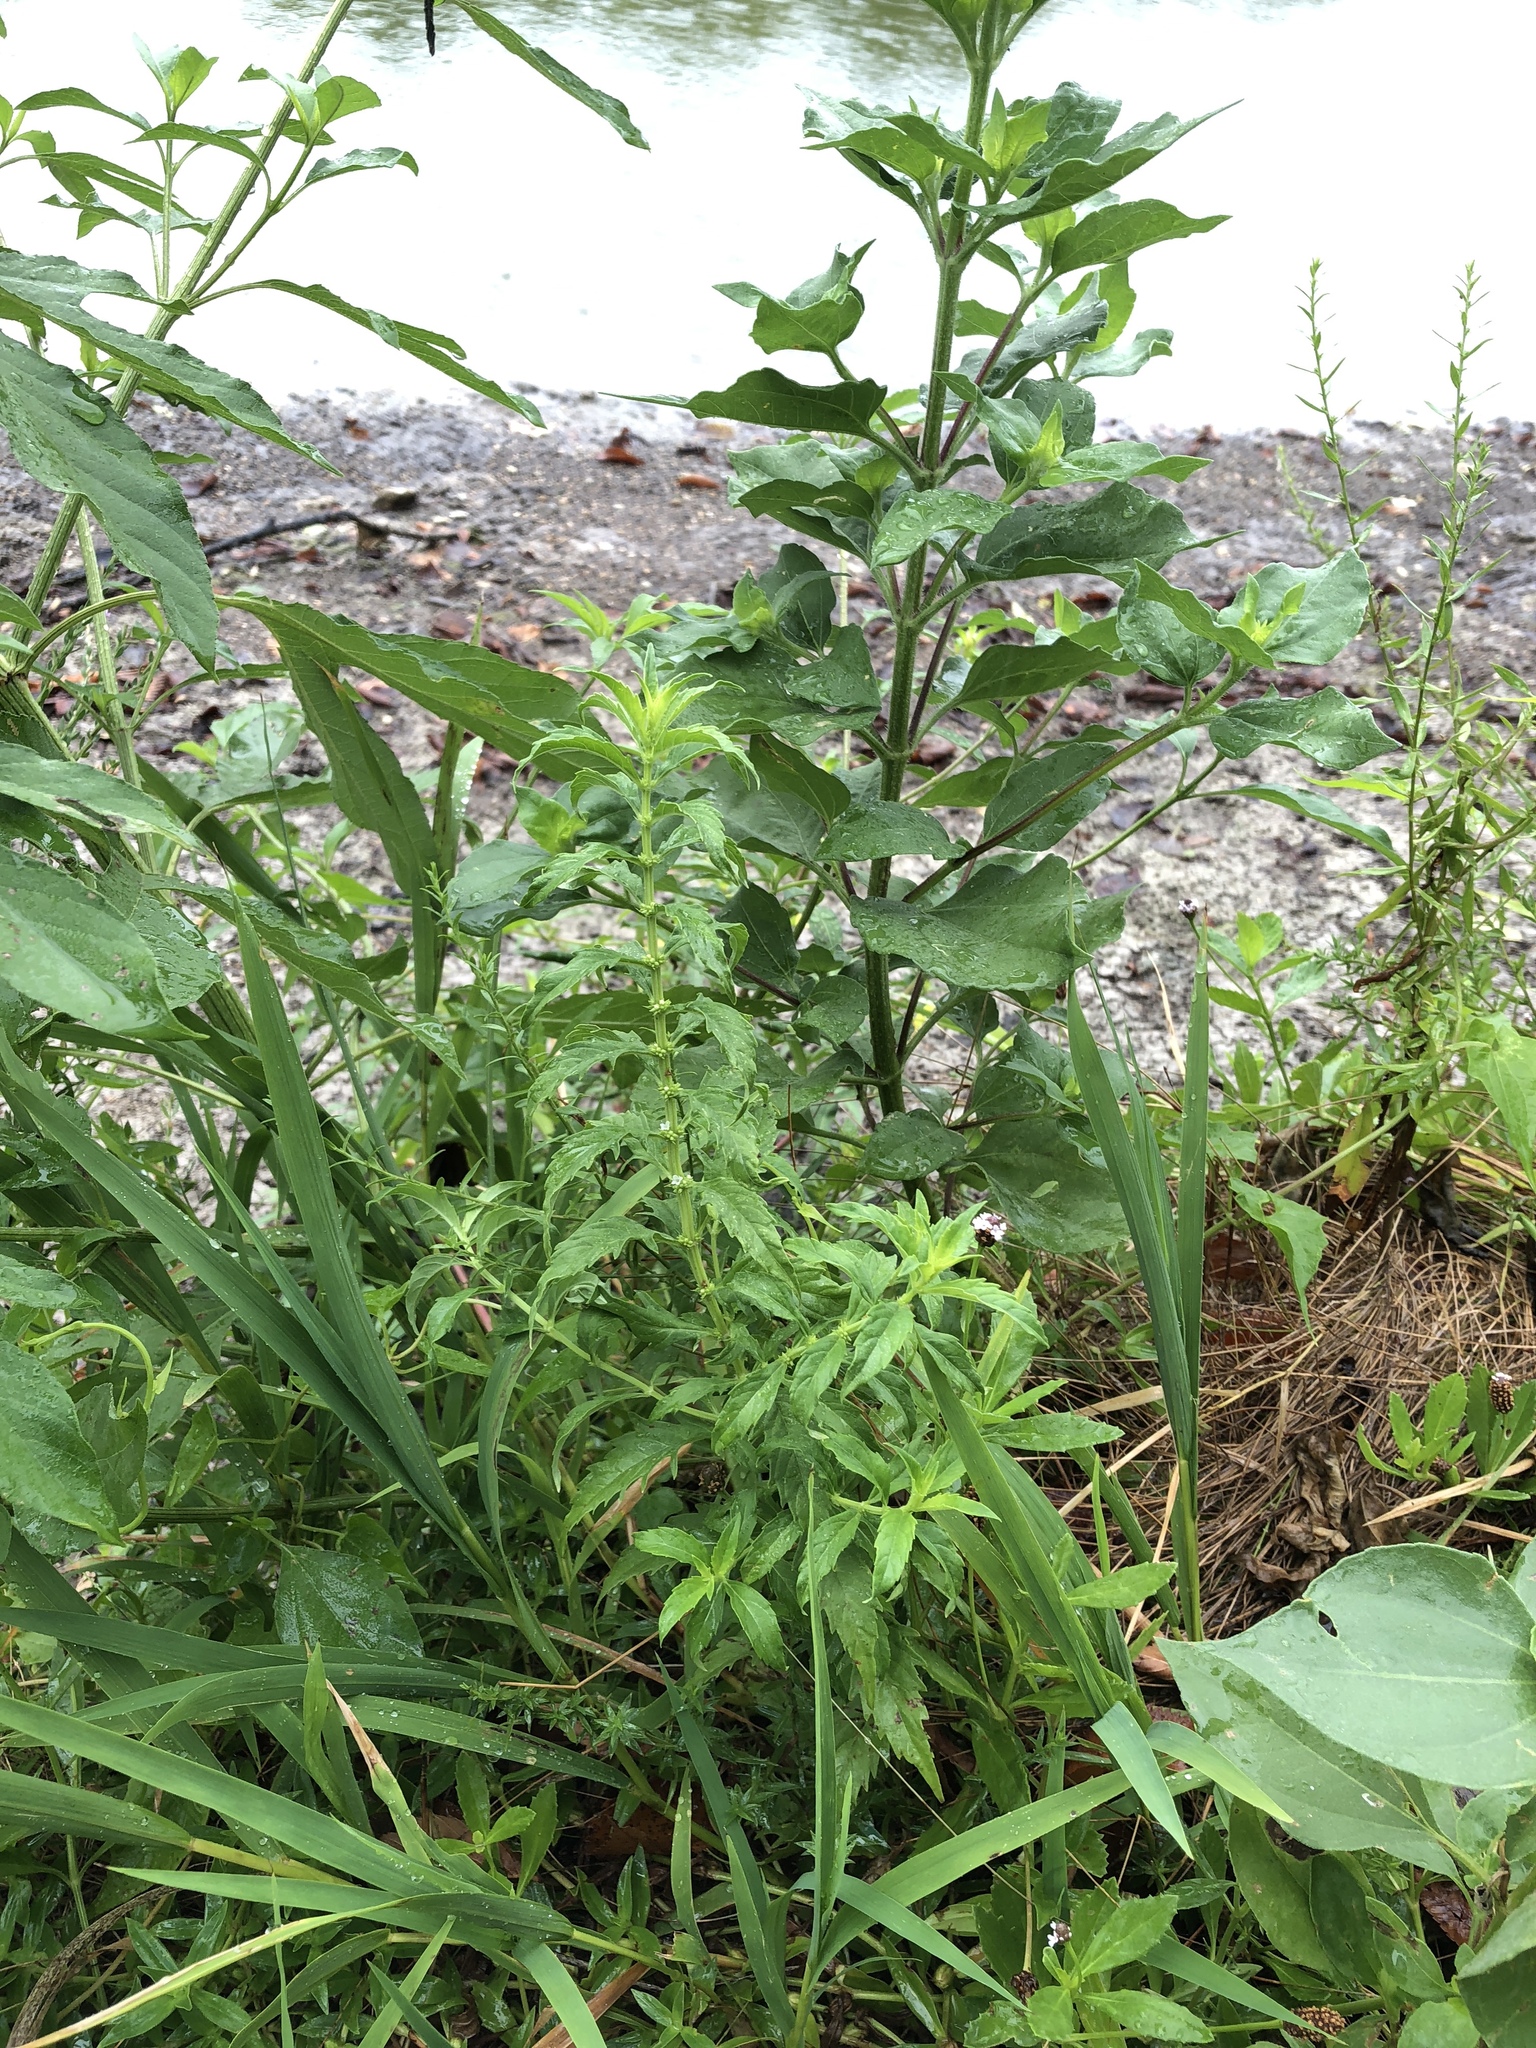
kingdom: Plantae
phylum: Tracheophyta
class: Magnoliopsida
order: Lamiales
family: Lamiaceae
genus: Lycopus
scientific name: Lycopus americanus
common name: American bugleweed
